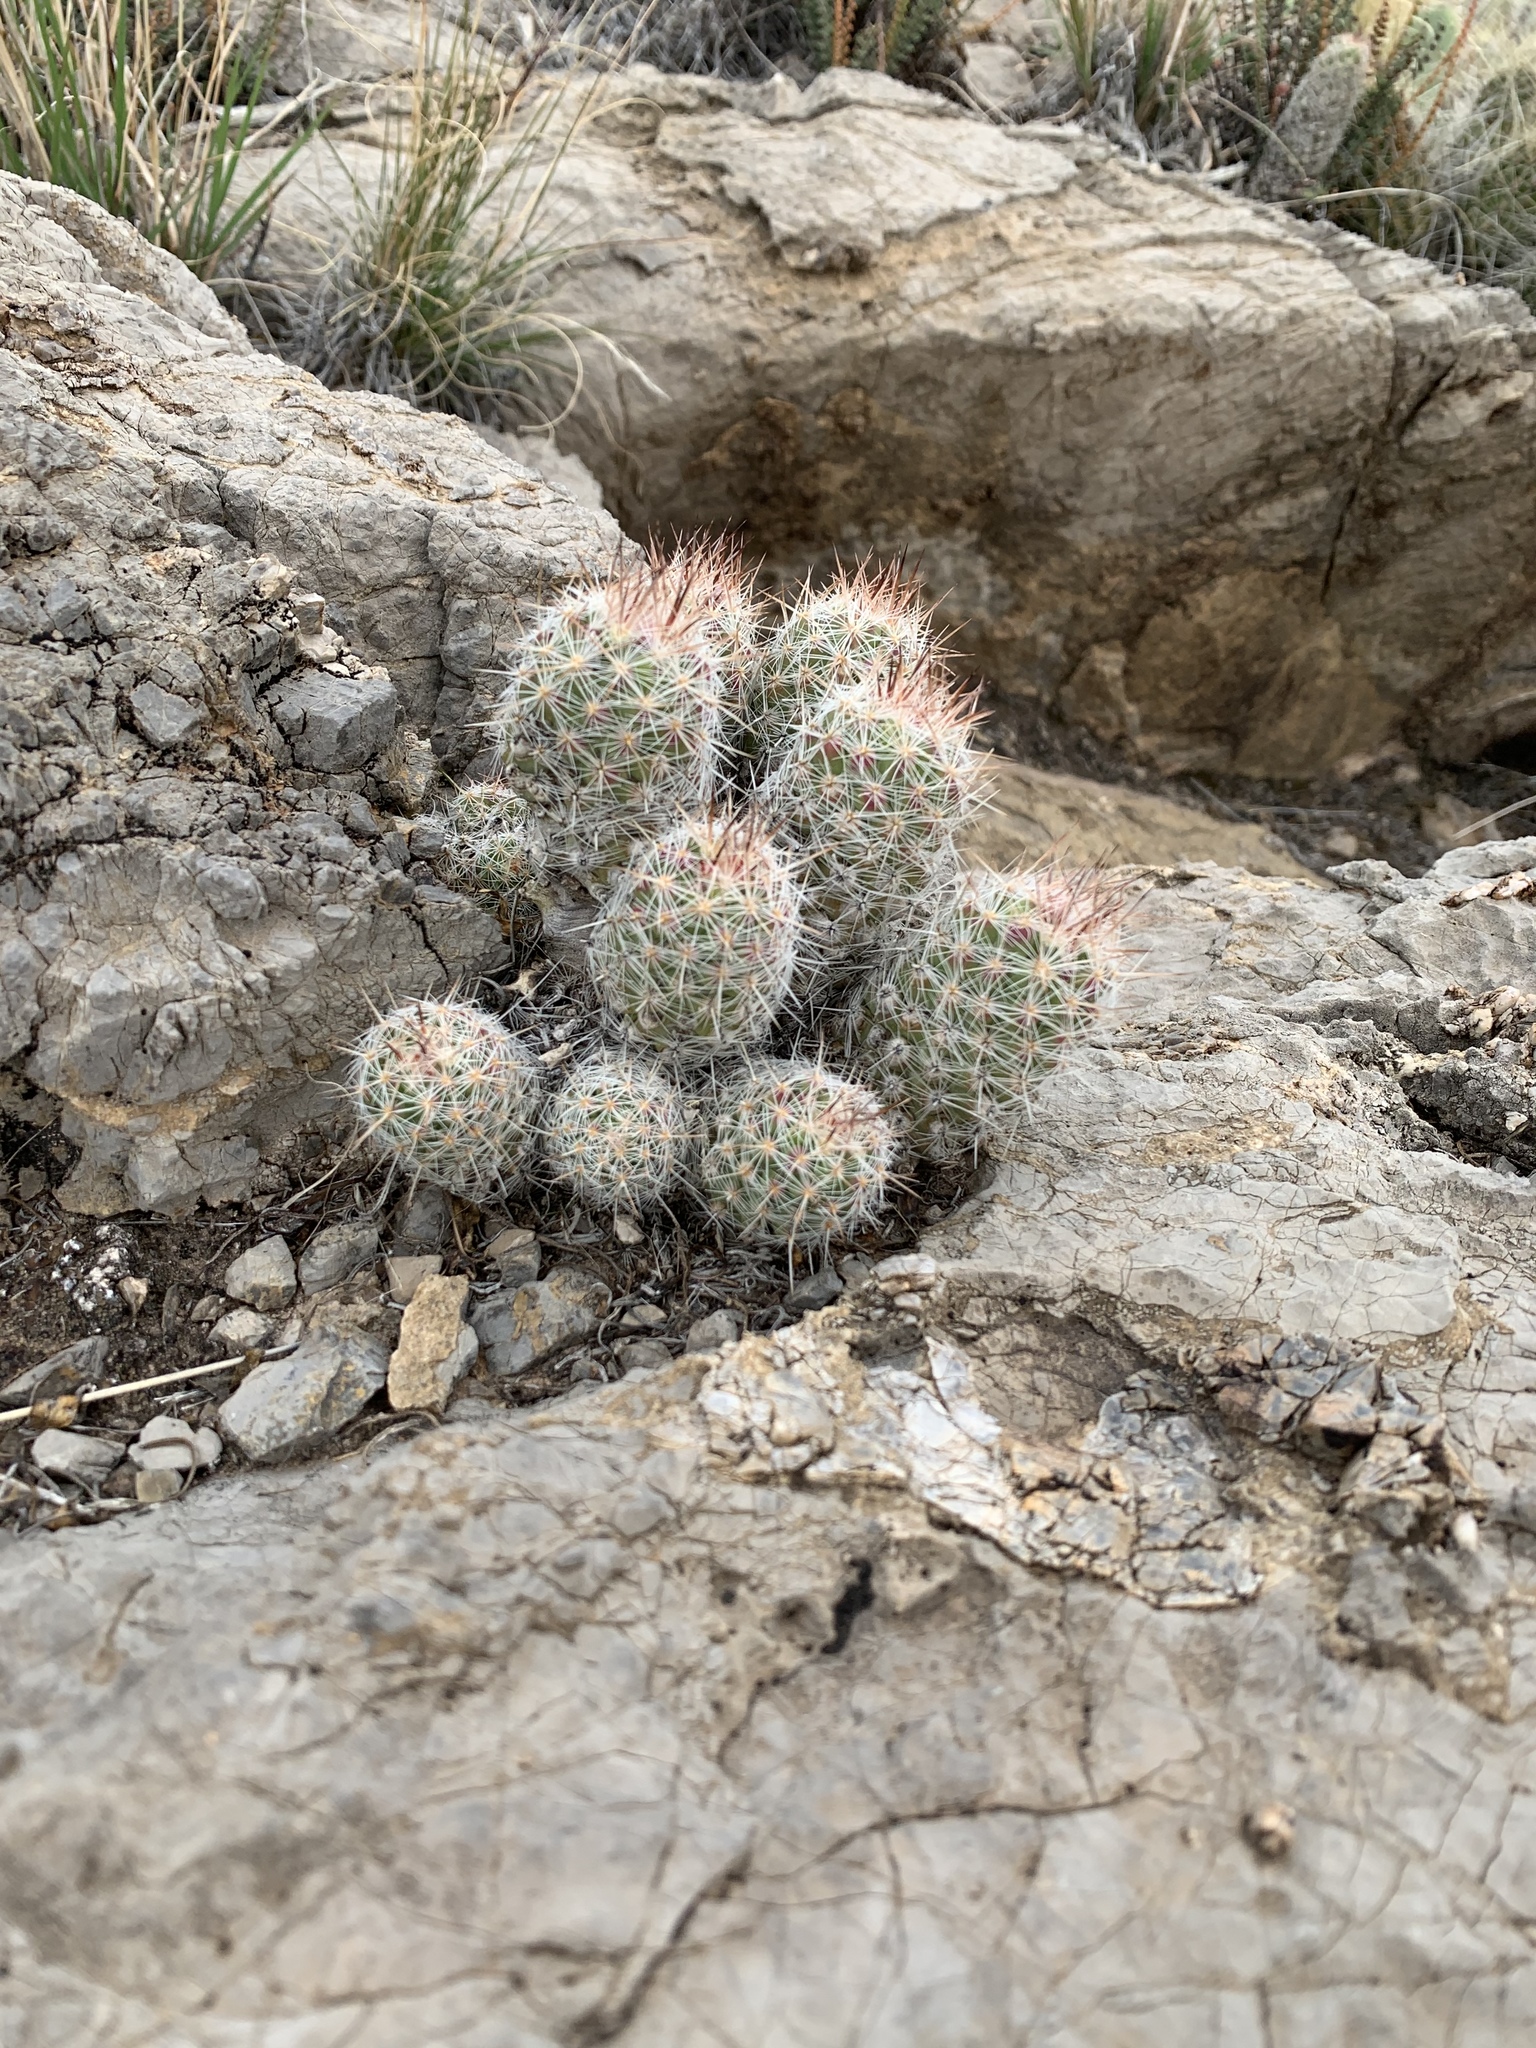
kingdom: Plantae
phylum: Tracheophyta
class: Magnoliopsida
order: Caryophyllales
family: Cactaceae
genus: Pelecyphora
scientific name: Pelecyphora tuberculosa
